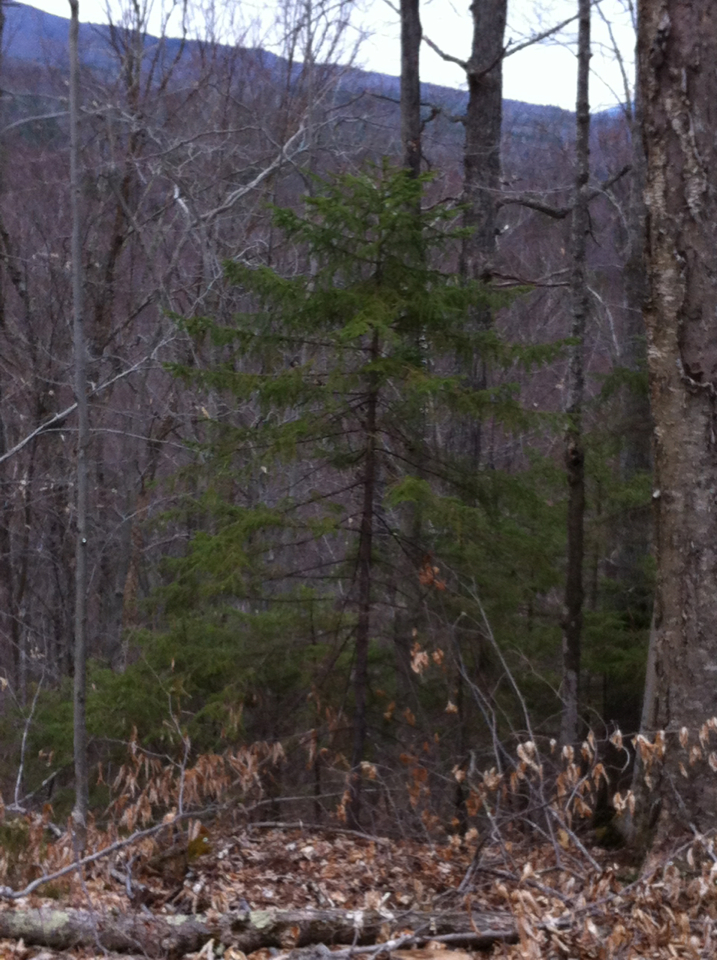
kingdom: Plantae
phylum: Tracheophyta
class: Pinopsida
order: Pinales
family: Pinaceae
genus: Picea
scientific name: Picea rubens
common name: Red spruce
